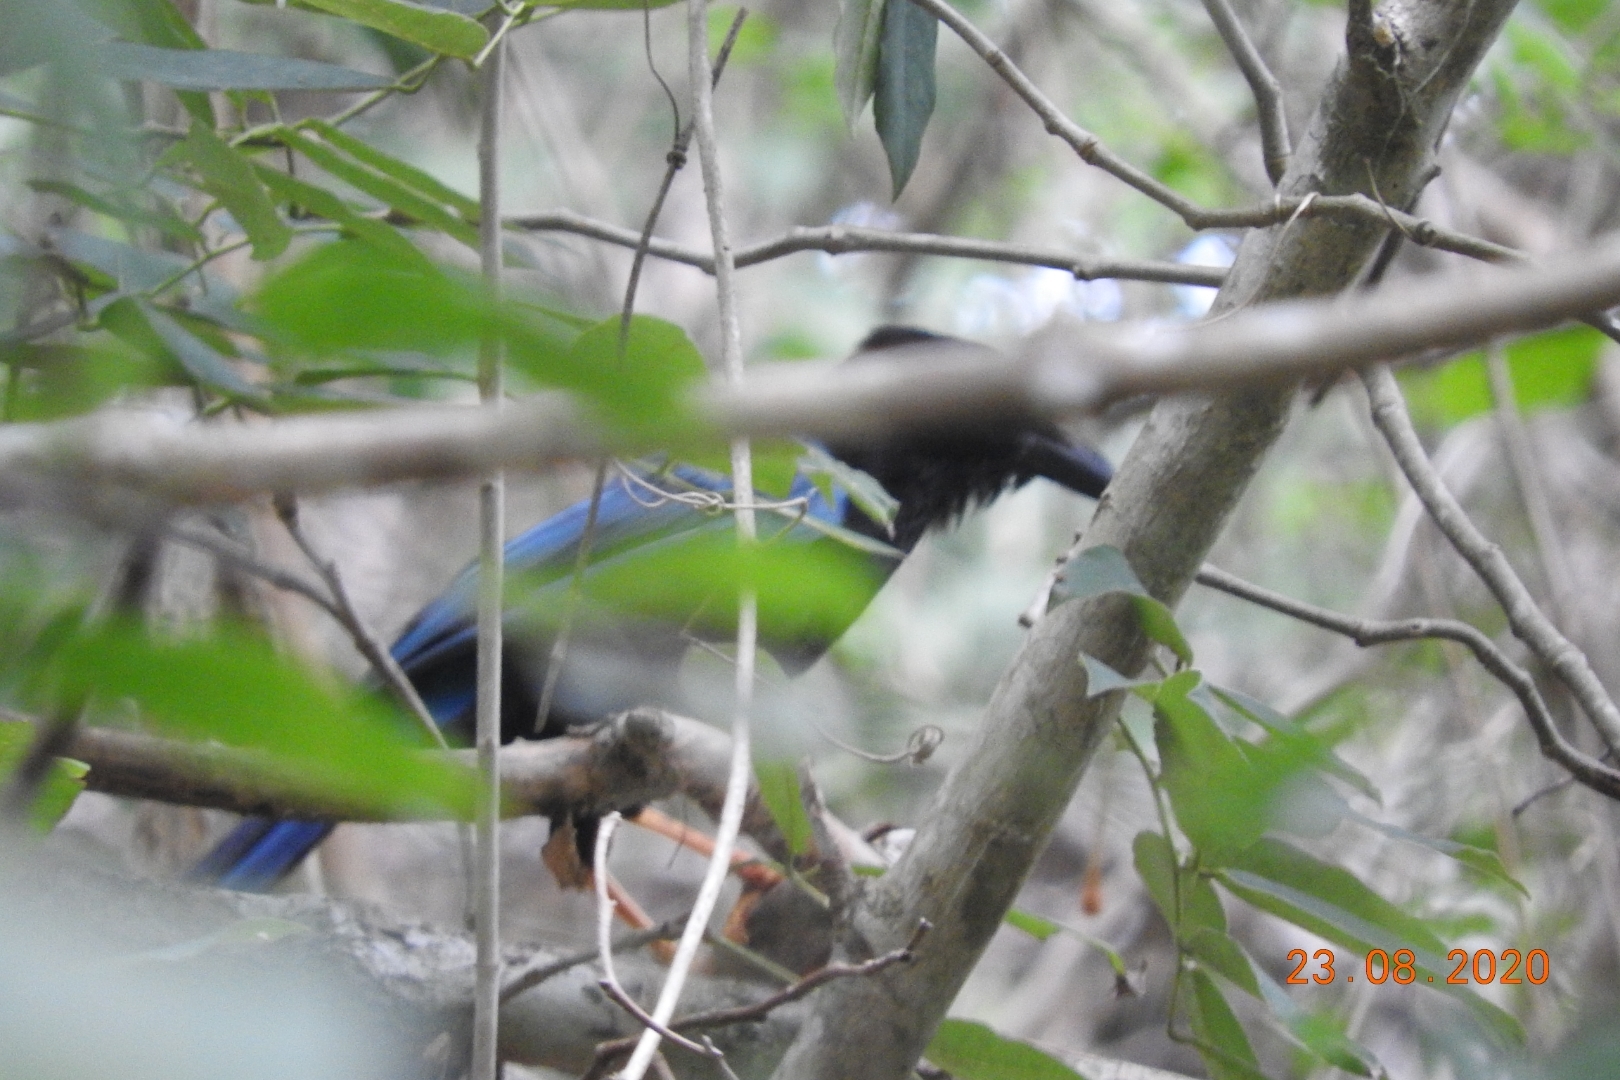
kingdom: Animalia
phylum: Chordata
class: Aves
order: Passeriformes
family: Corvidae
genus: Cyanocorax
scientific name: Cyanocorax yucatanicus
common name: Yucatan jay
